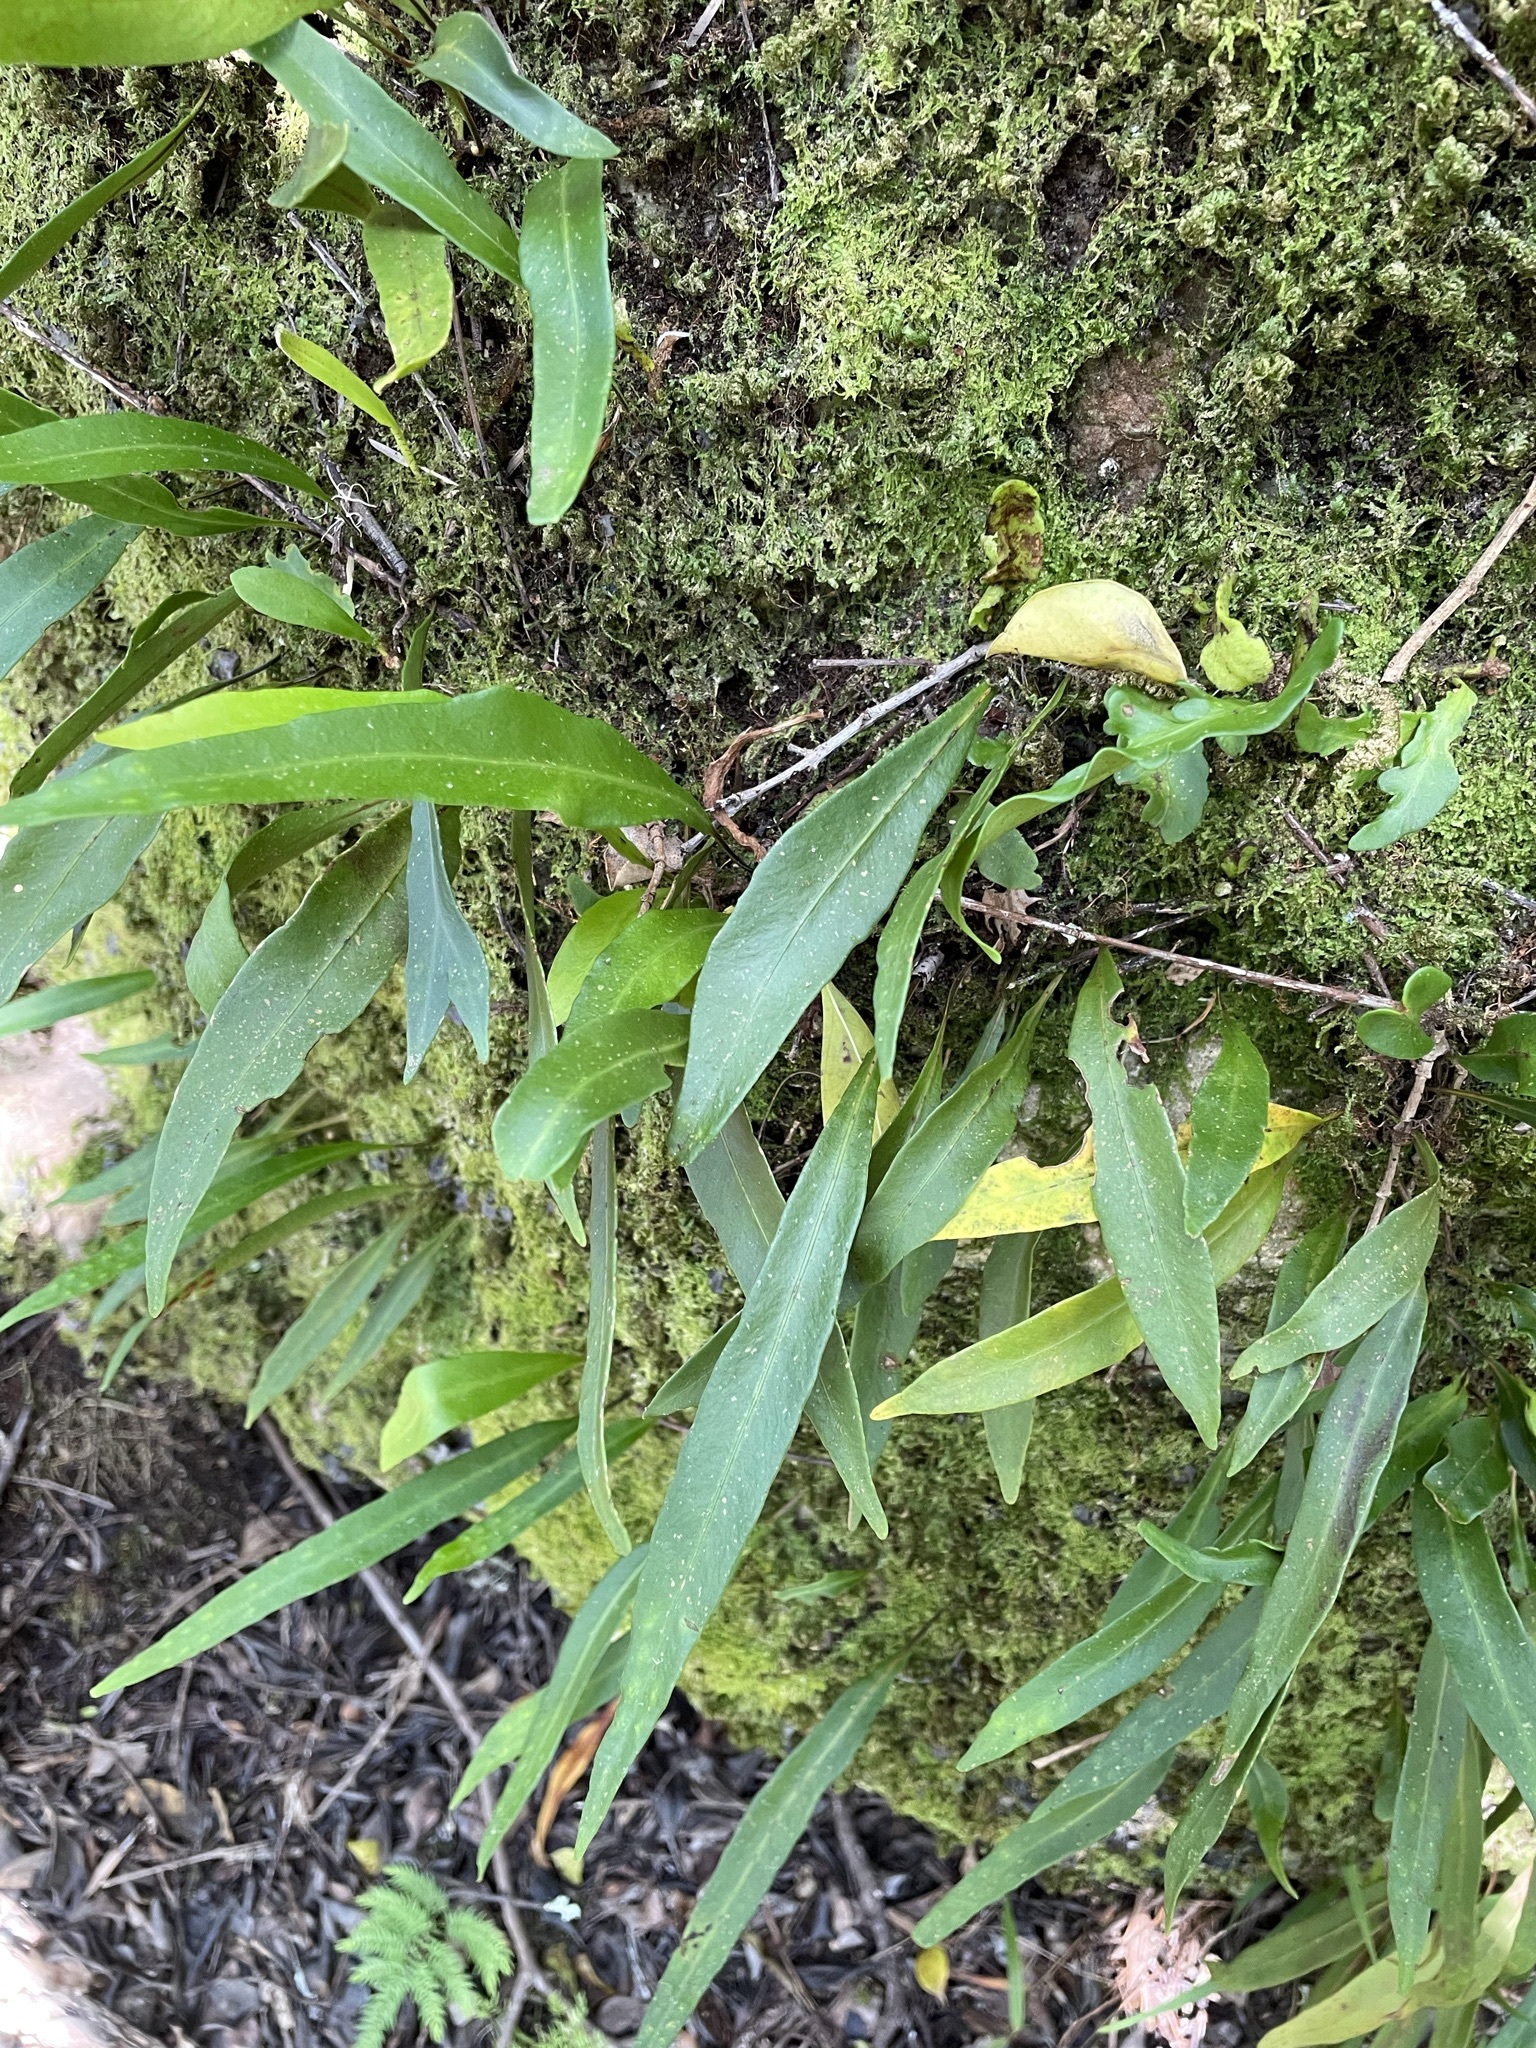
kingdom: Plantae
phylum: Tracheophyta
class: Polypodiopsida
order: Polypodiales
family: Polypodiaceae
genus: Pleopeltis
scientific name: Pleopeltis macrocarpa
